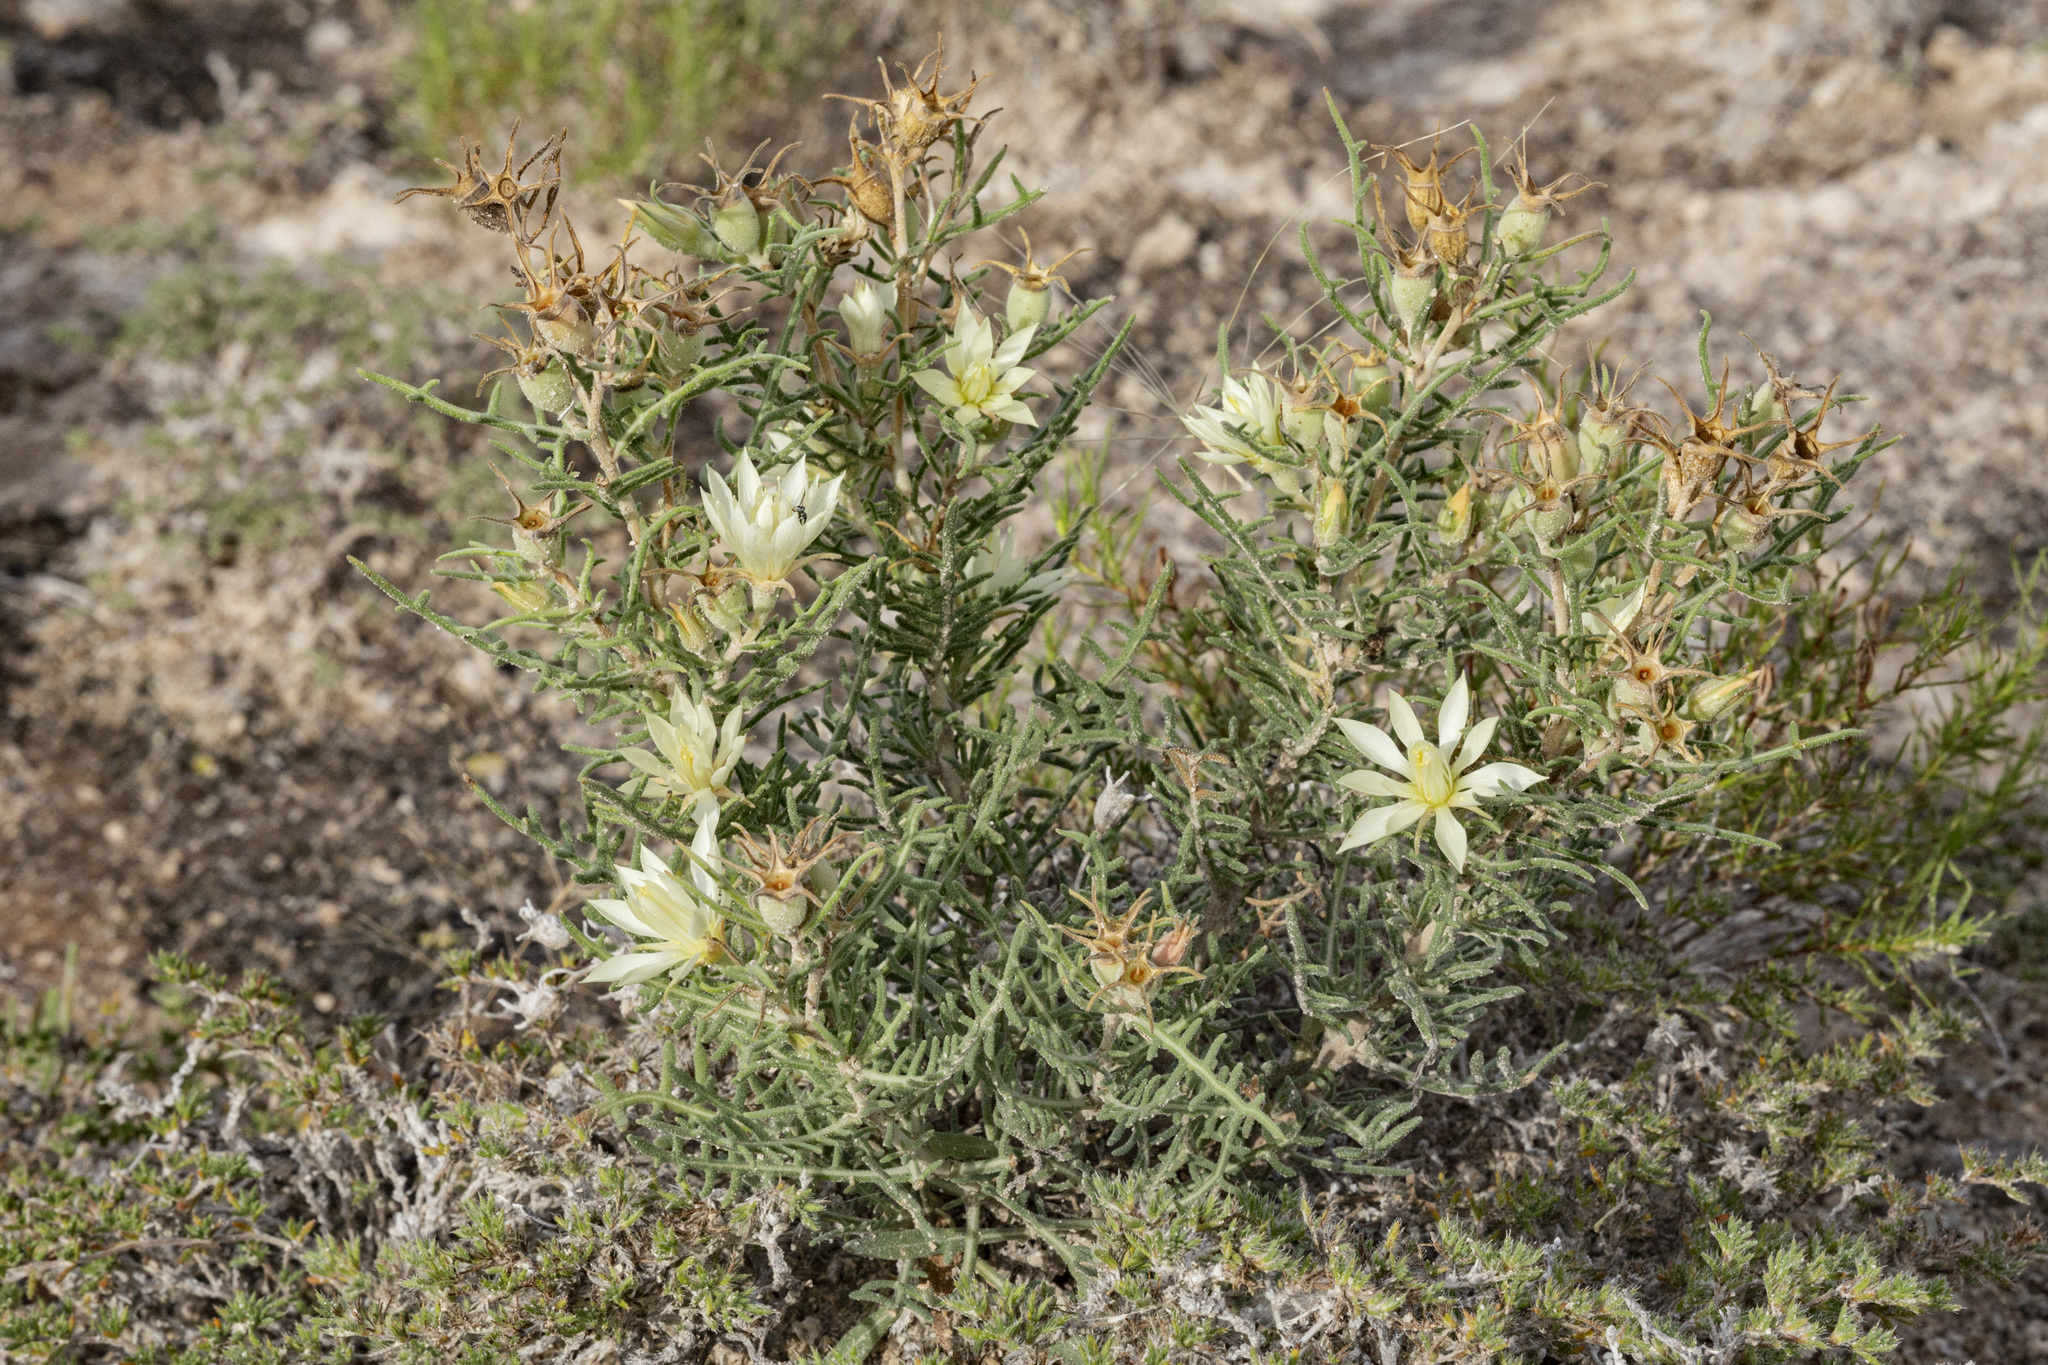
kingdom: Plantae
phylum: Tracheophyta
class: Magnoliopsida
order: Cornales
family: Loasaceae
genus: Mentzelia
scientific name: Mentzelia humilis
